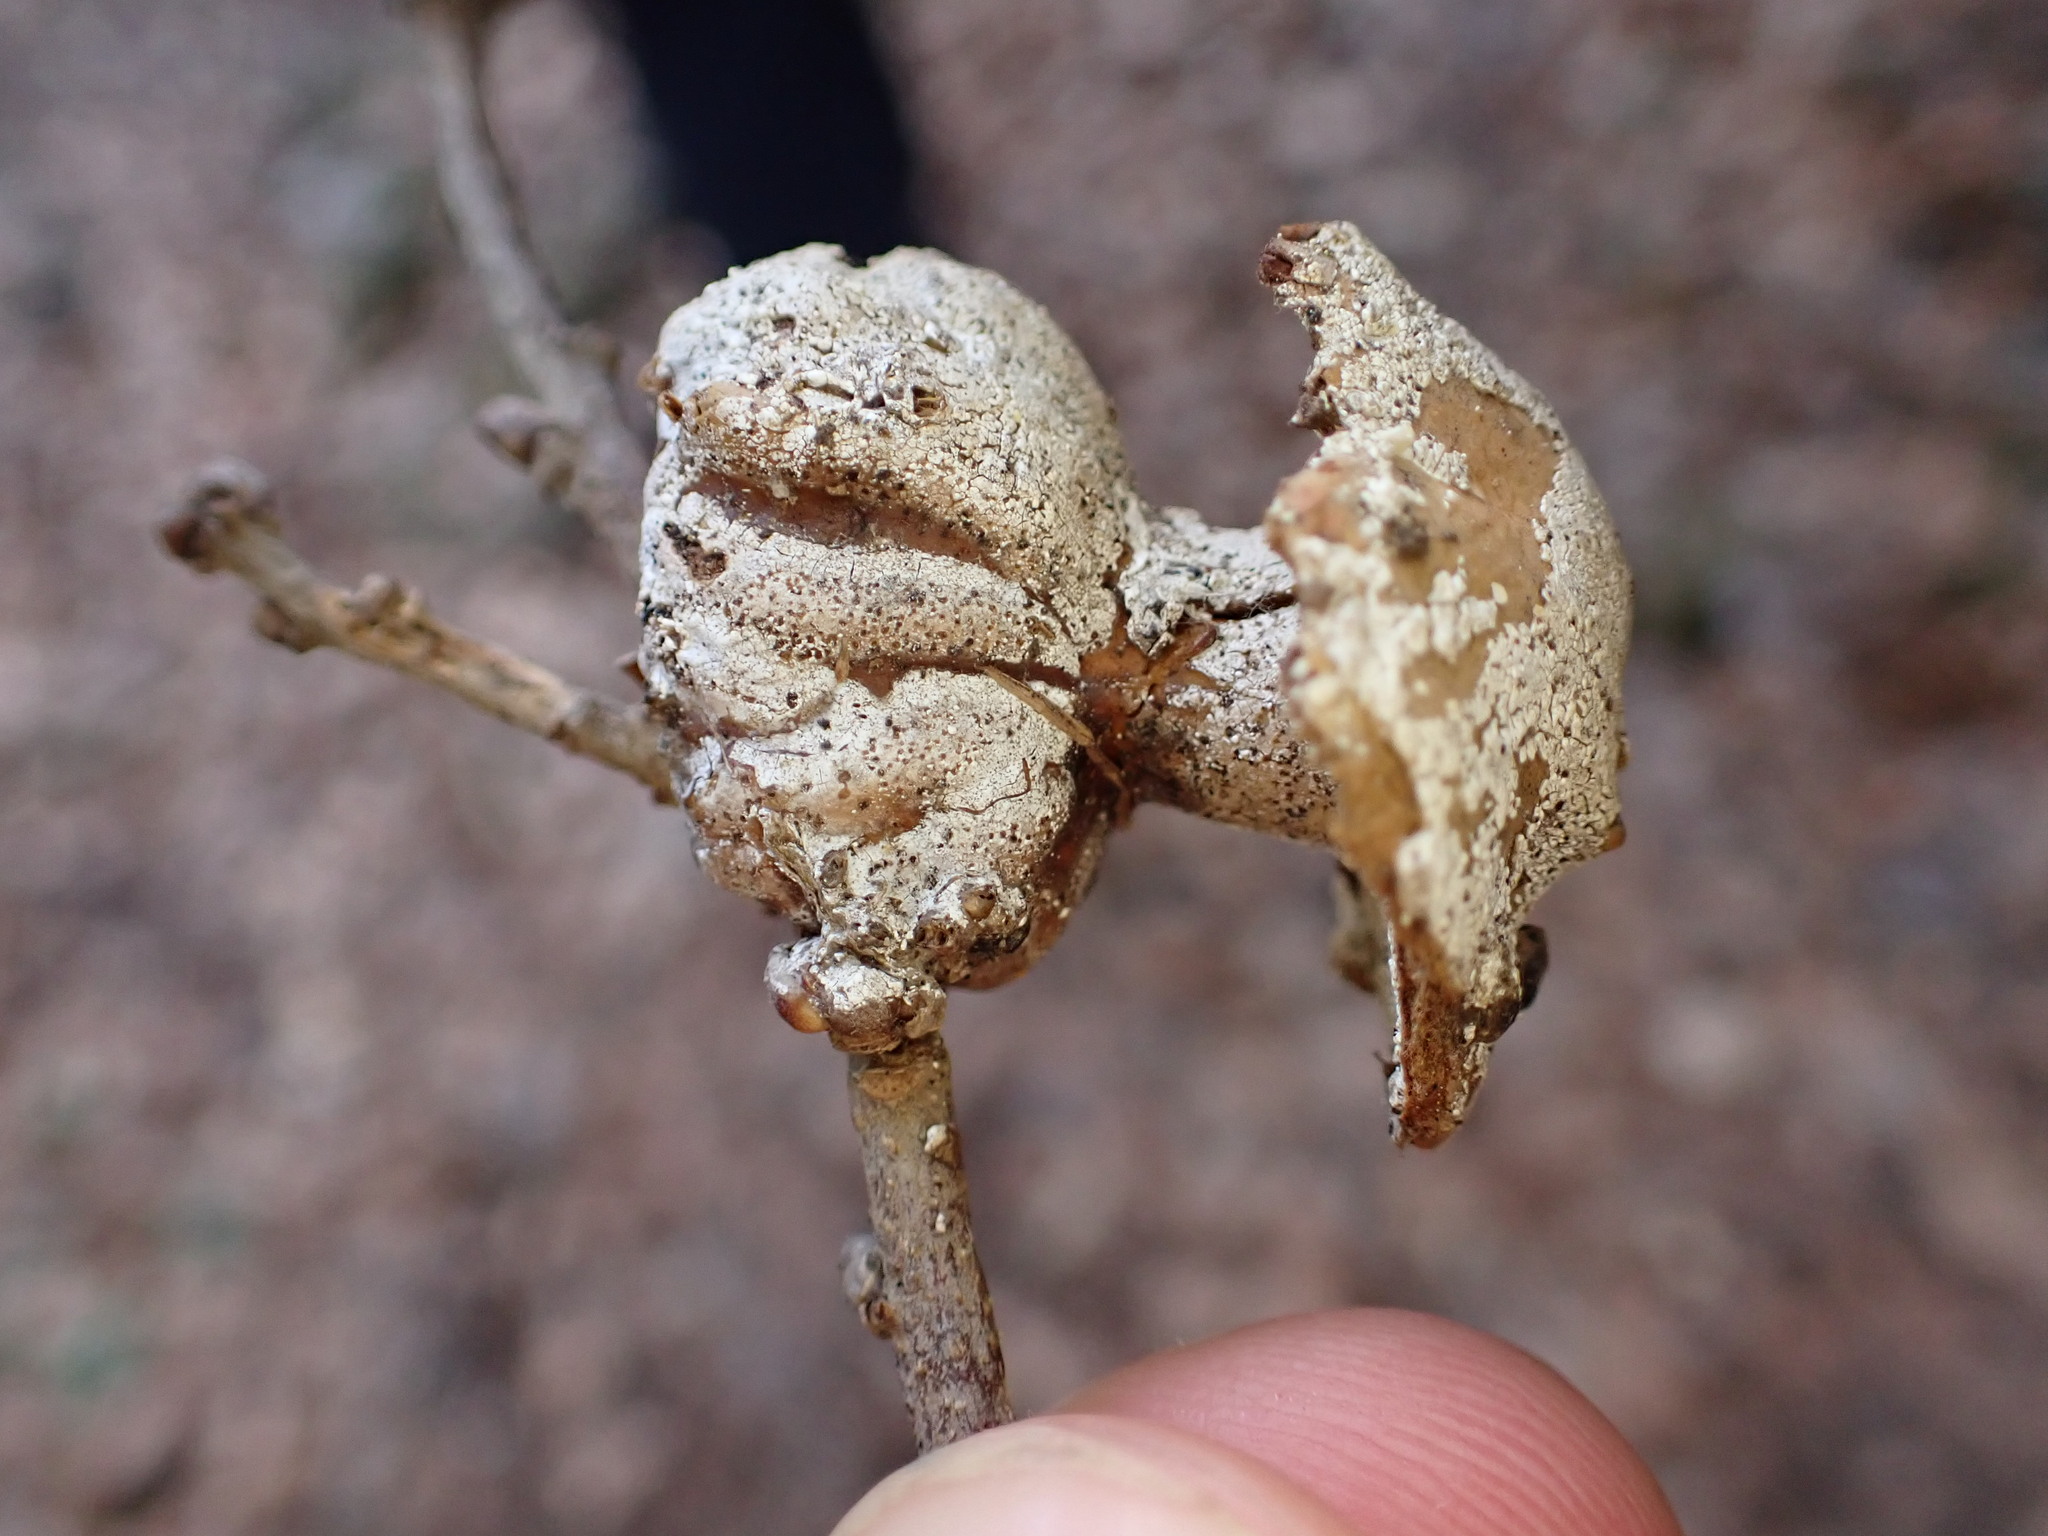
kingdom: Animalia
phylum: Arthropoda
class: Insecta
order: Hymenoptera
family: Cynipidae
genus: Andricus
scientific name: Andricus dentimitratus
